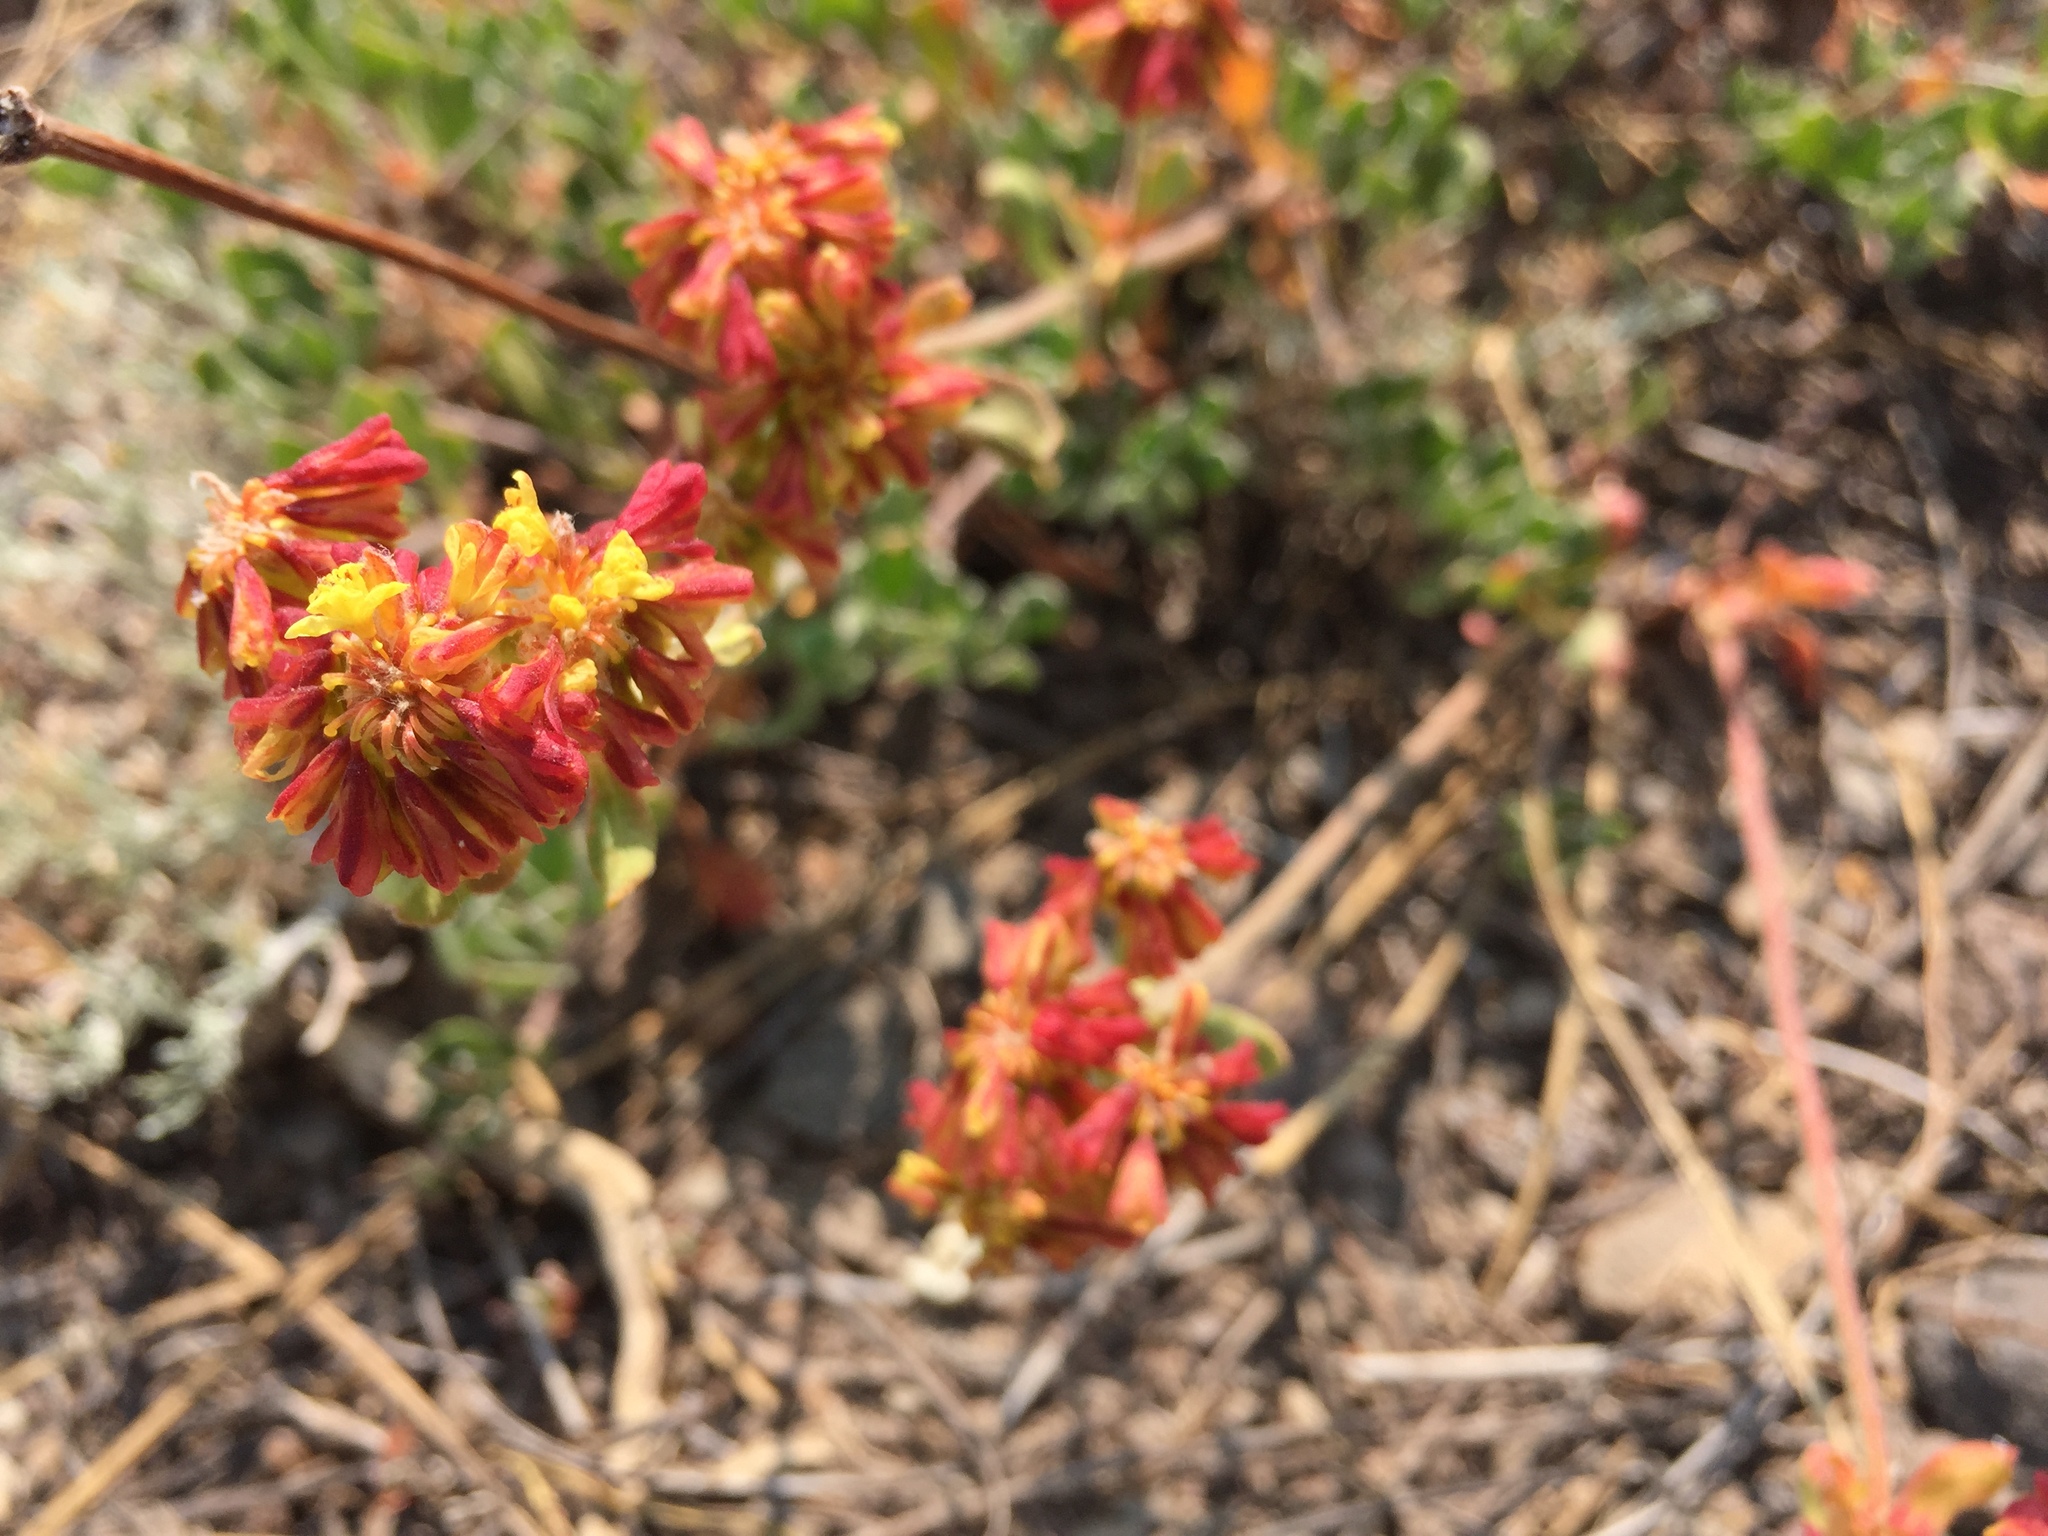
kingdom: Plantae
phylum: Tracheophyta
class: Magnoliopsida
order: Caryophyllales
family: Polygonaceae
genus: Eriogonum
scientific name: Eriogonum umbellatum
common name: Sulfur-buckwheat
